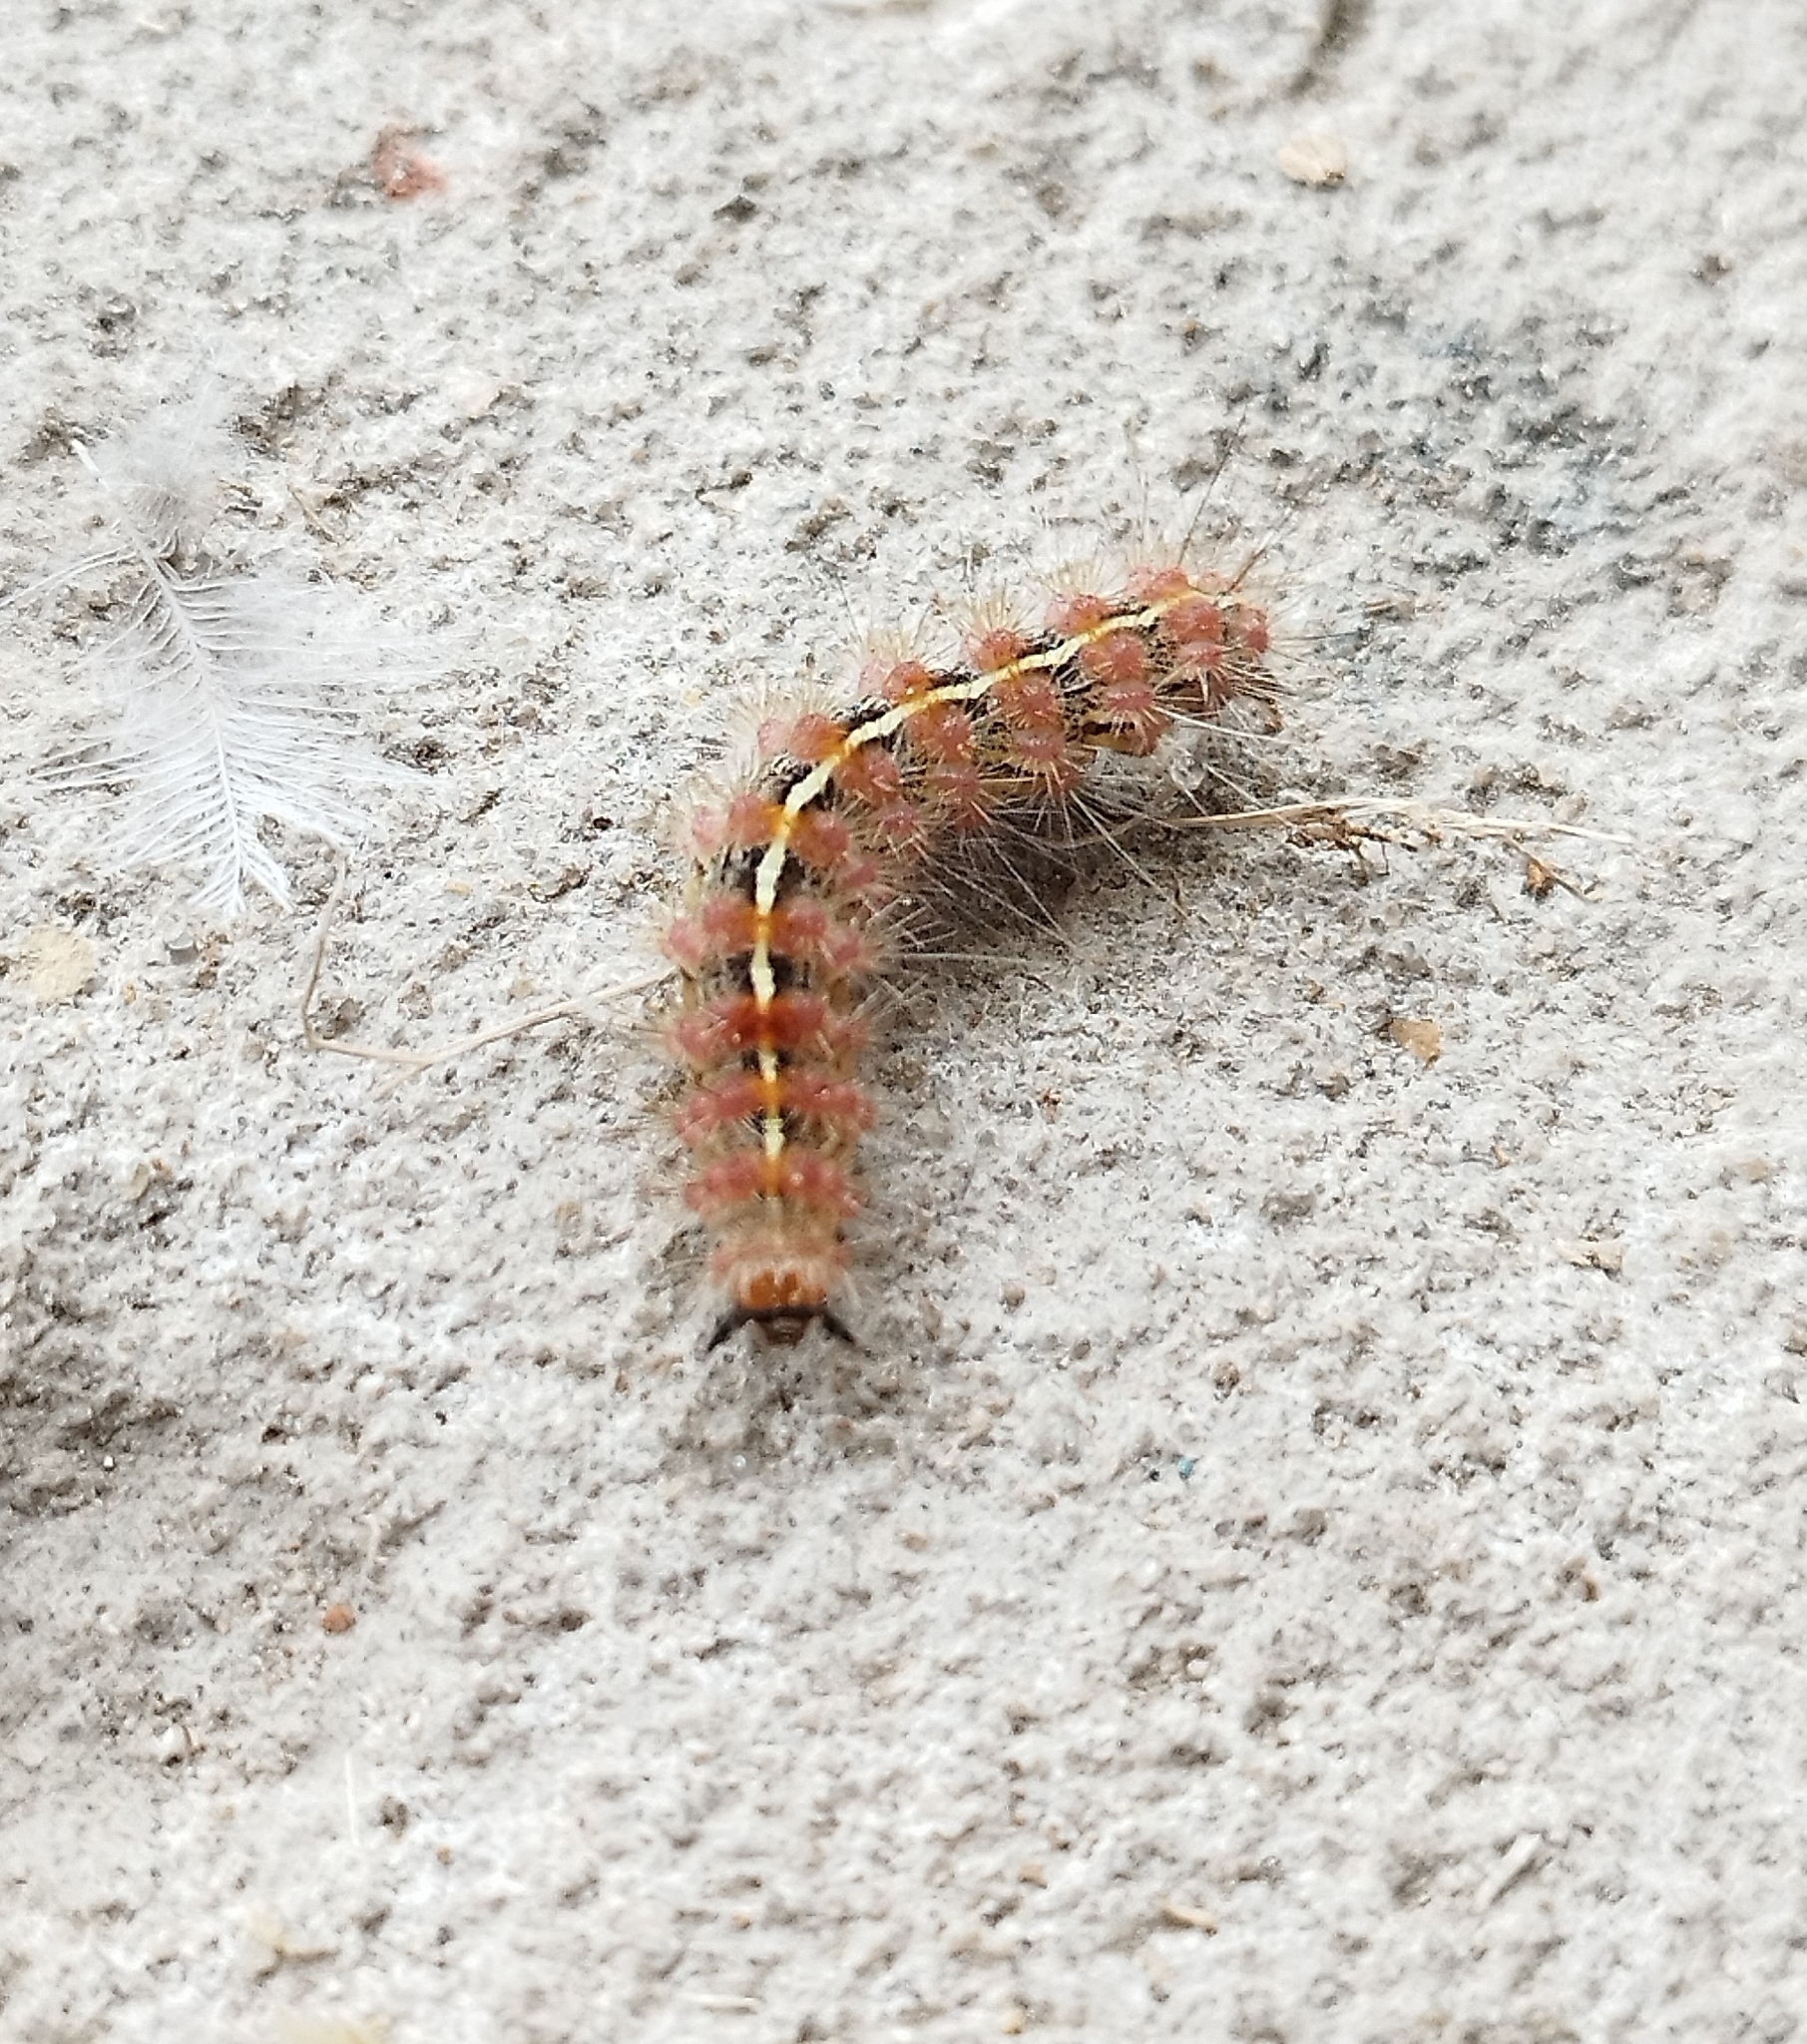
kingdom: Animalia
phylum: Arthropoda
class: Insecta
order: Lepidoptera
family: Erebidae
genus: Paracles
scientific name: Paracles fusca
